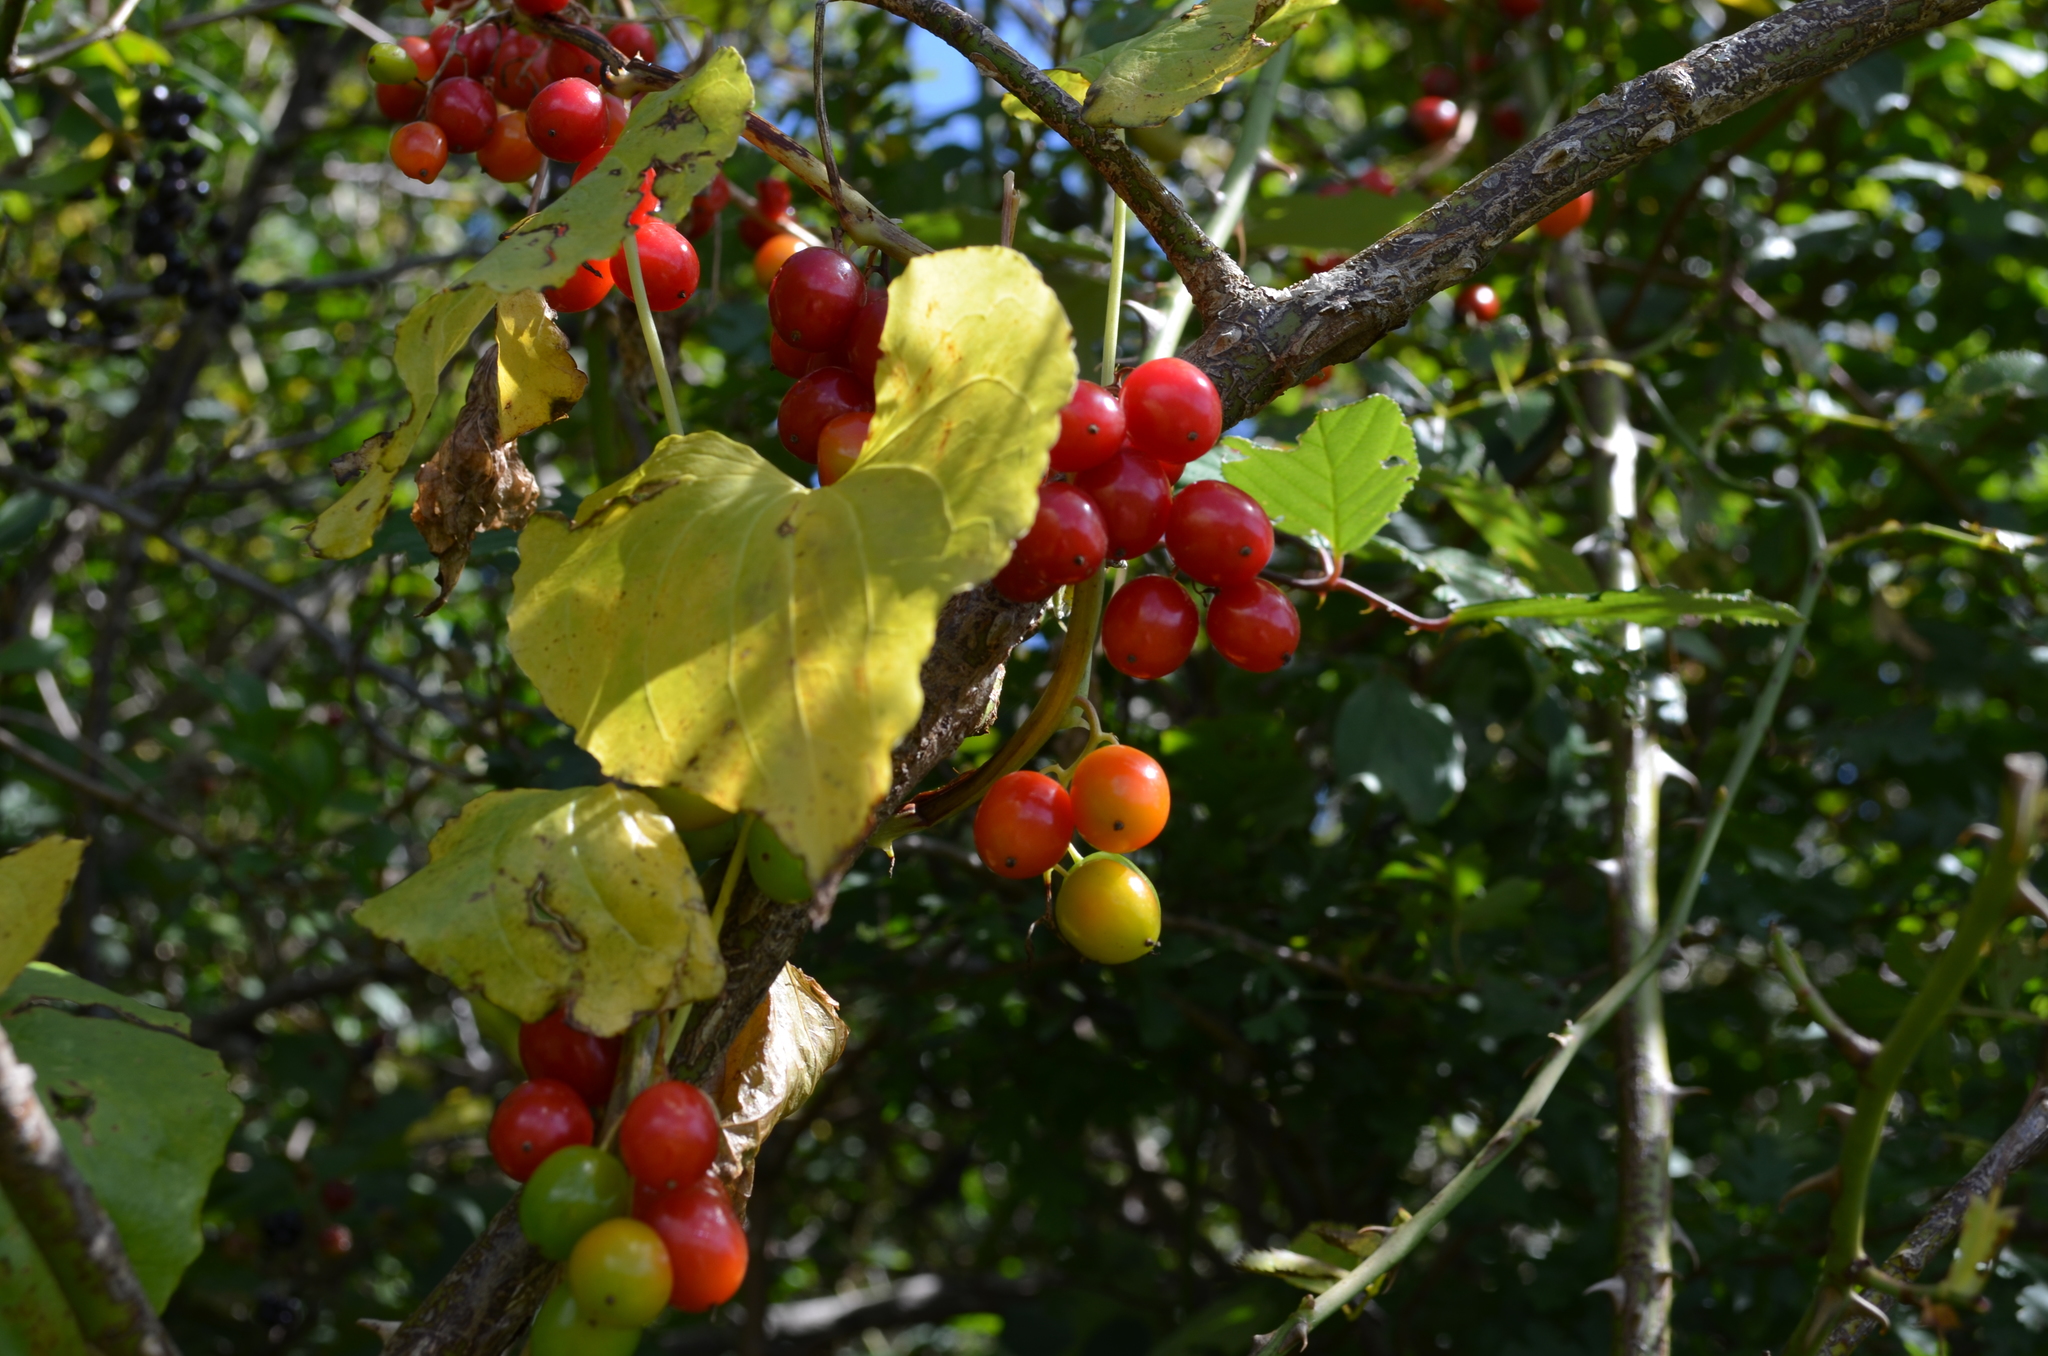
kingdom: Plantae
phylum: Tracheophyta
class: Liliopsida
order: Dioscoreales
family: Dioscoreaceae
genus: Dioscorea
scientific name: Dioscorea communis
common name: Black-bindweed
